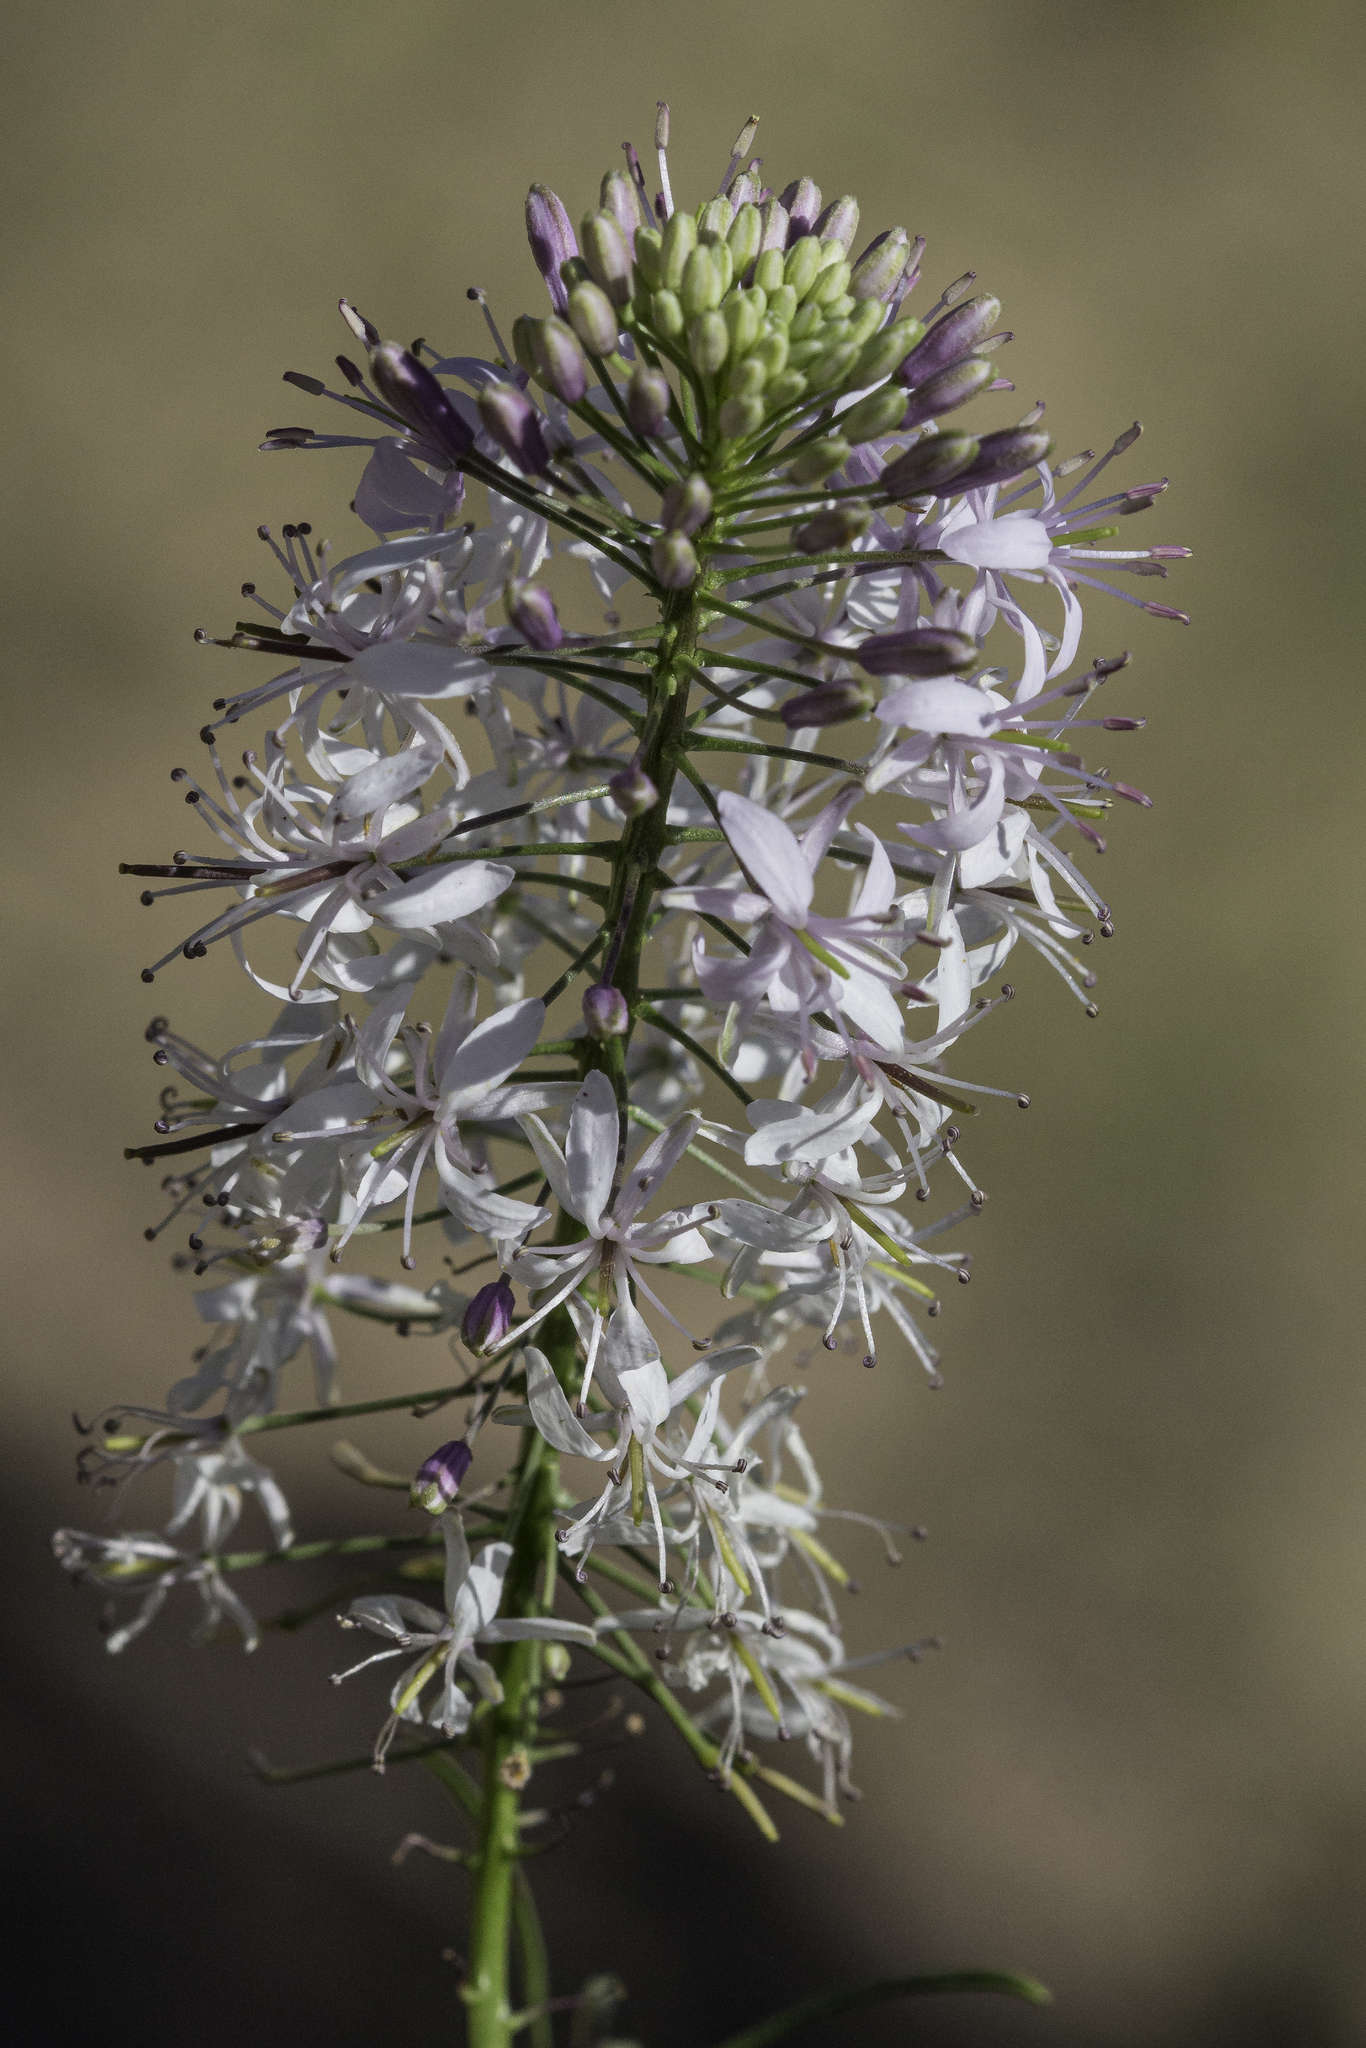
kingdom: Plantae
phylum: Tracheophyta
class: Magnoliopsida
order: Brassicales
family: Brassicaceae
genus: Thelypodium
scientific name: Thelypodium wrightii
